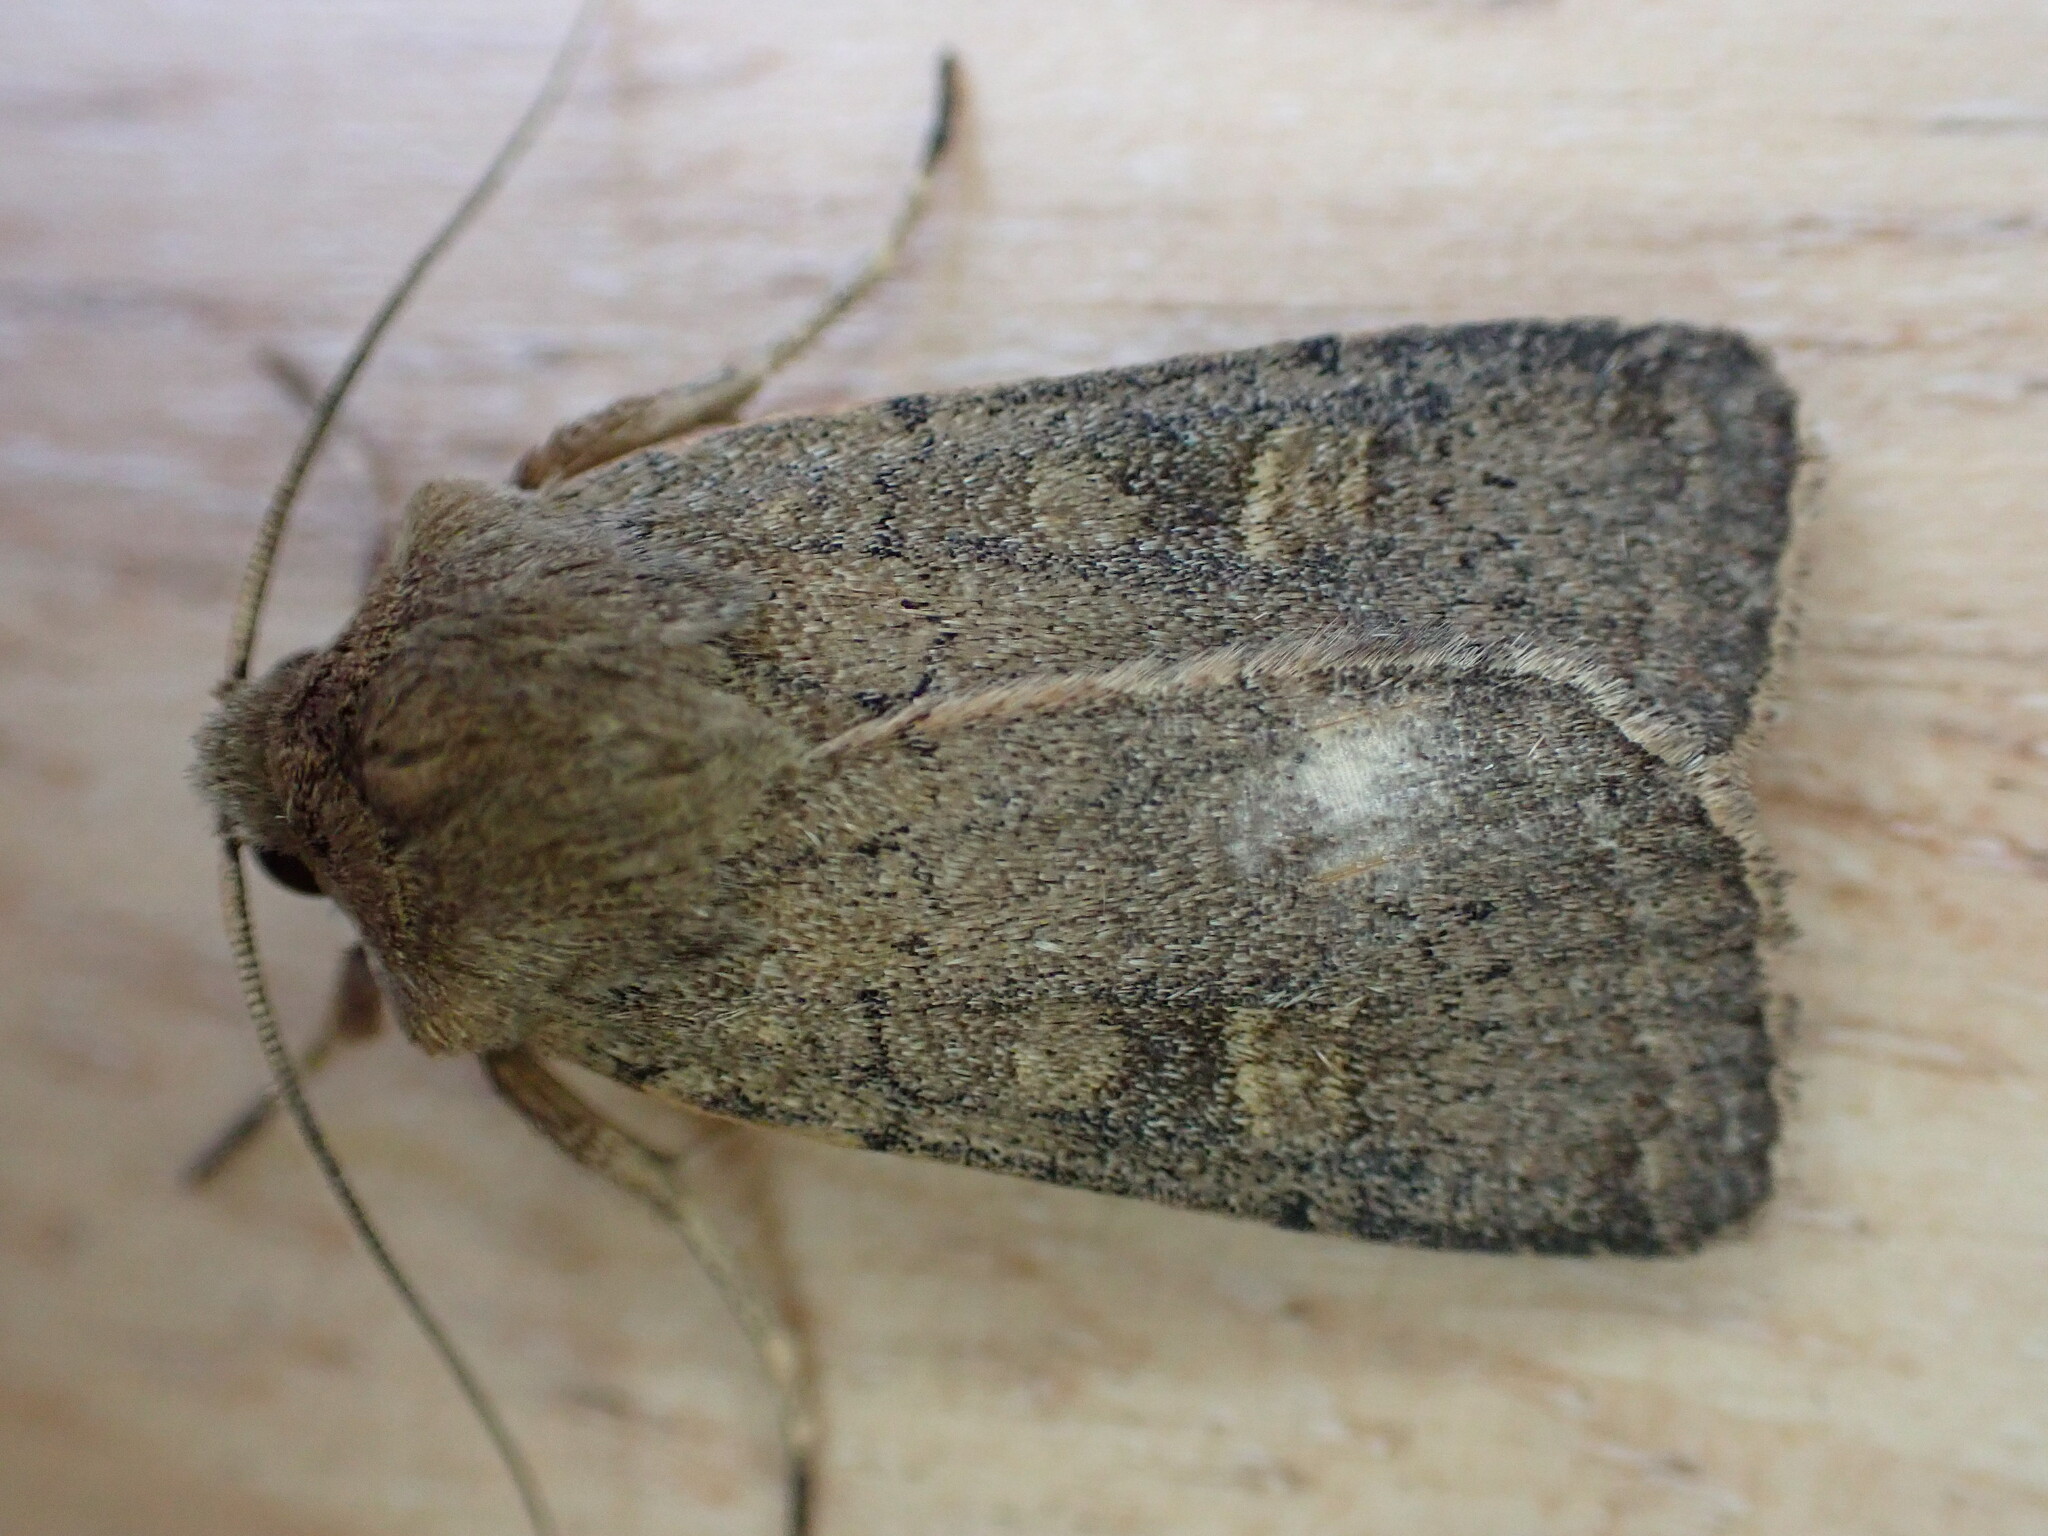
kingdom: Animalia
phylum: Arthropoda
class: Insecta
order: Lepidoptera
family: Noctuidae
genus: Xestia
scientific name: Xestia xanthographa
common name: Square-spot rustic
